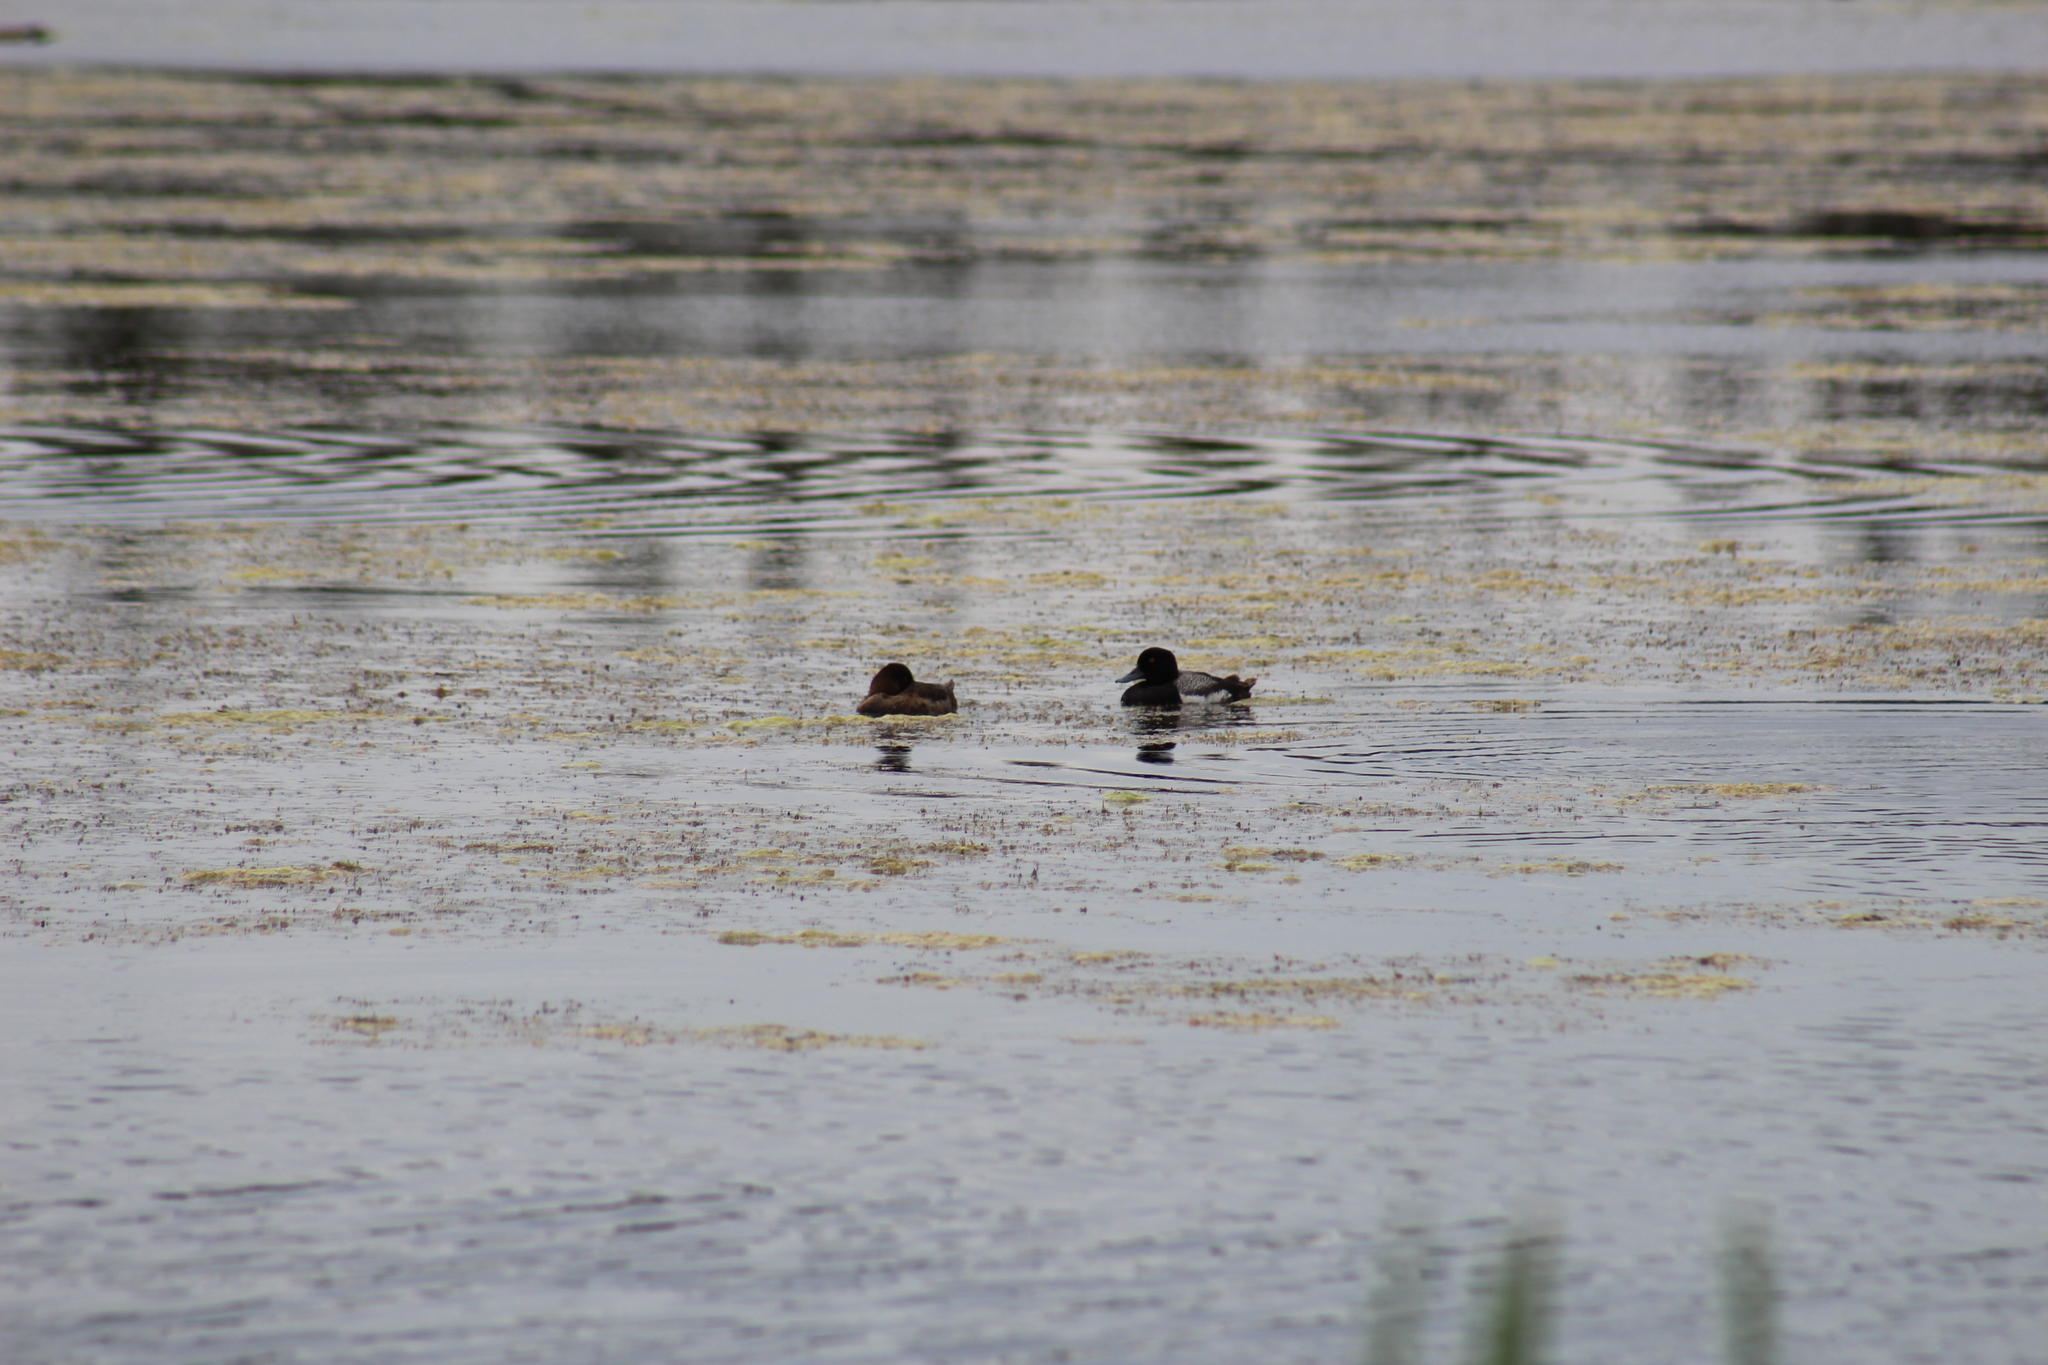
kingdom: Animalia
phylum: Chordata
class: Aves
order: Anseriformes
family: Anatidae
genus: Aythya
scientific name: Aythya affinis
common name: Lesser scaup
